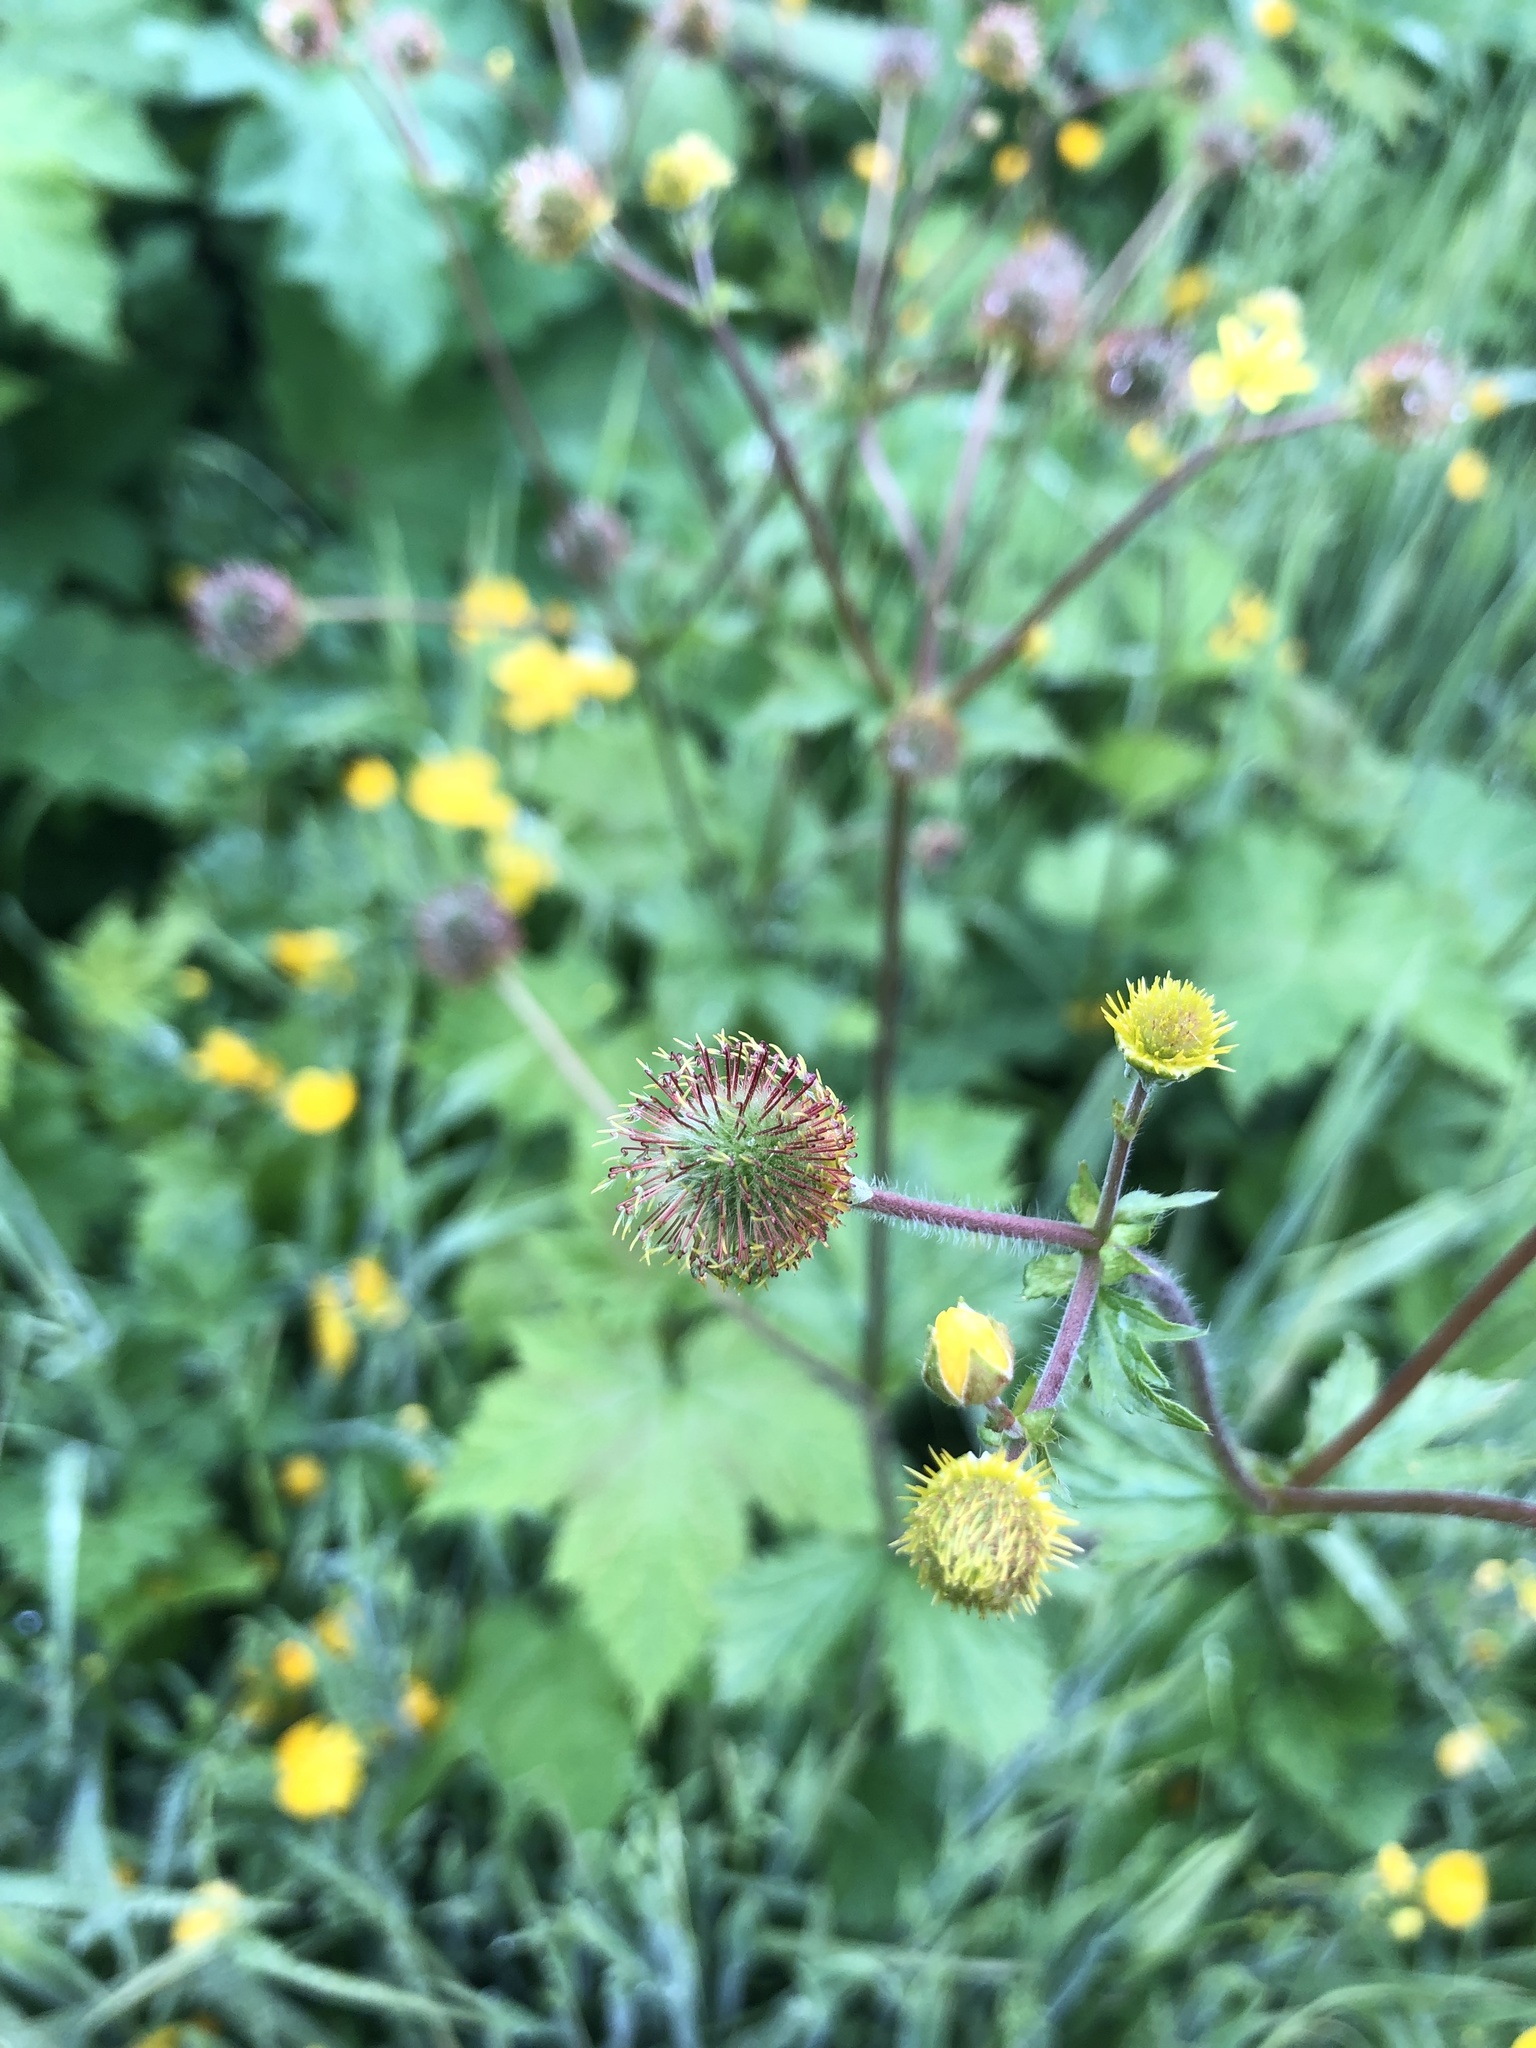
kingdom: Plantae
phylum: Tracheophyta
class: Magnoliopsida
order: Rosales
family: Rosaceae
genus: Geum
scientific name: Geum macrophyllum
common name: Large-leaved avens
